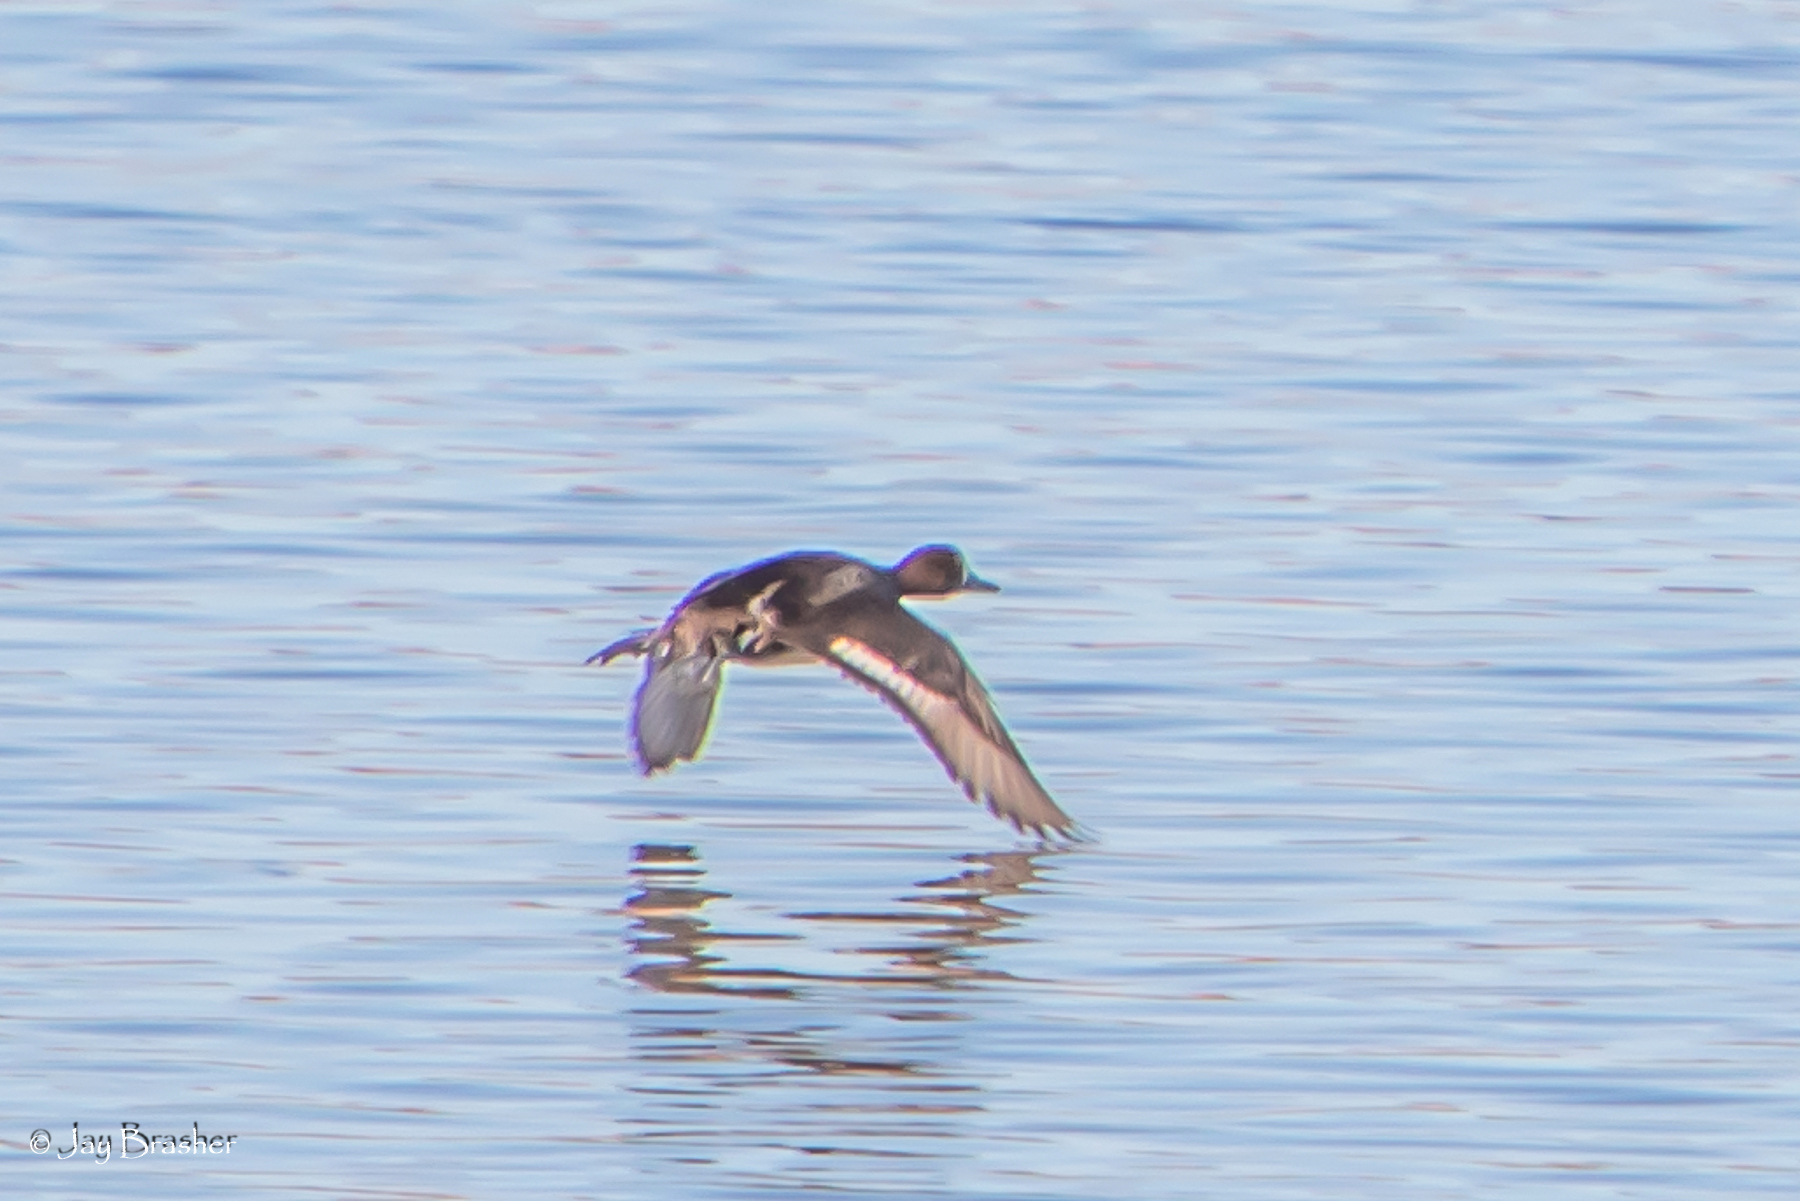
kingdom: Animalia
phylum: Chordata
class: Aves
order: Anseriformes
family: Anatidae
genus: Aythya
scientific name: Aythya collaris
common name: Ring-necked duck
